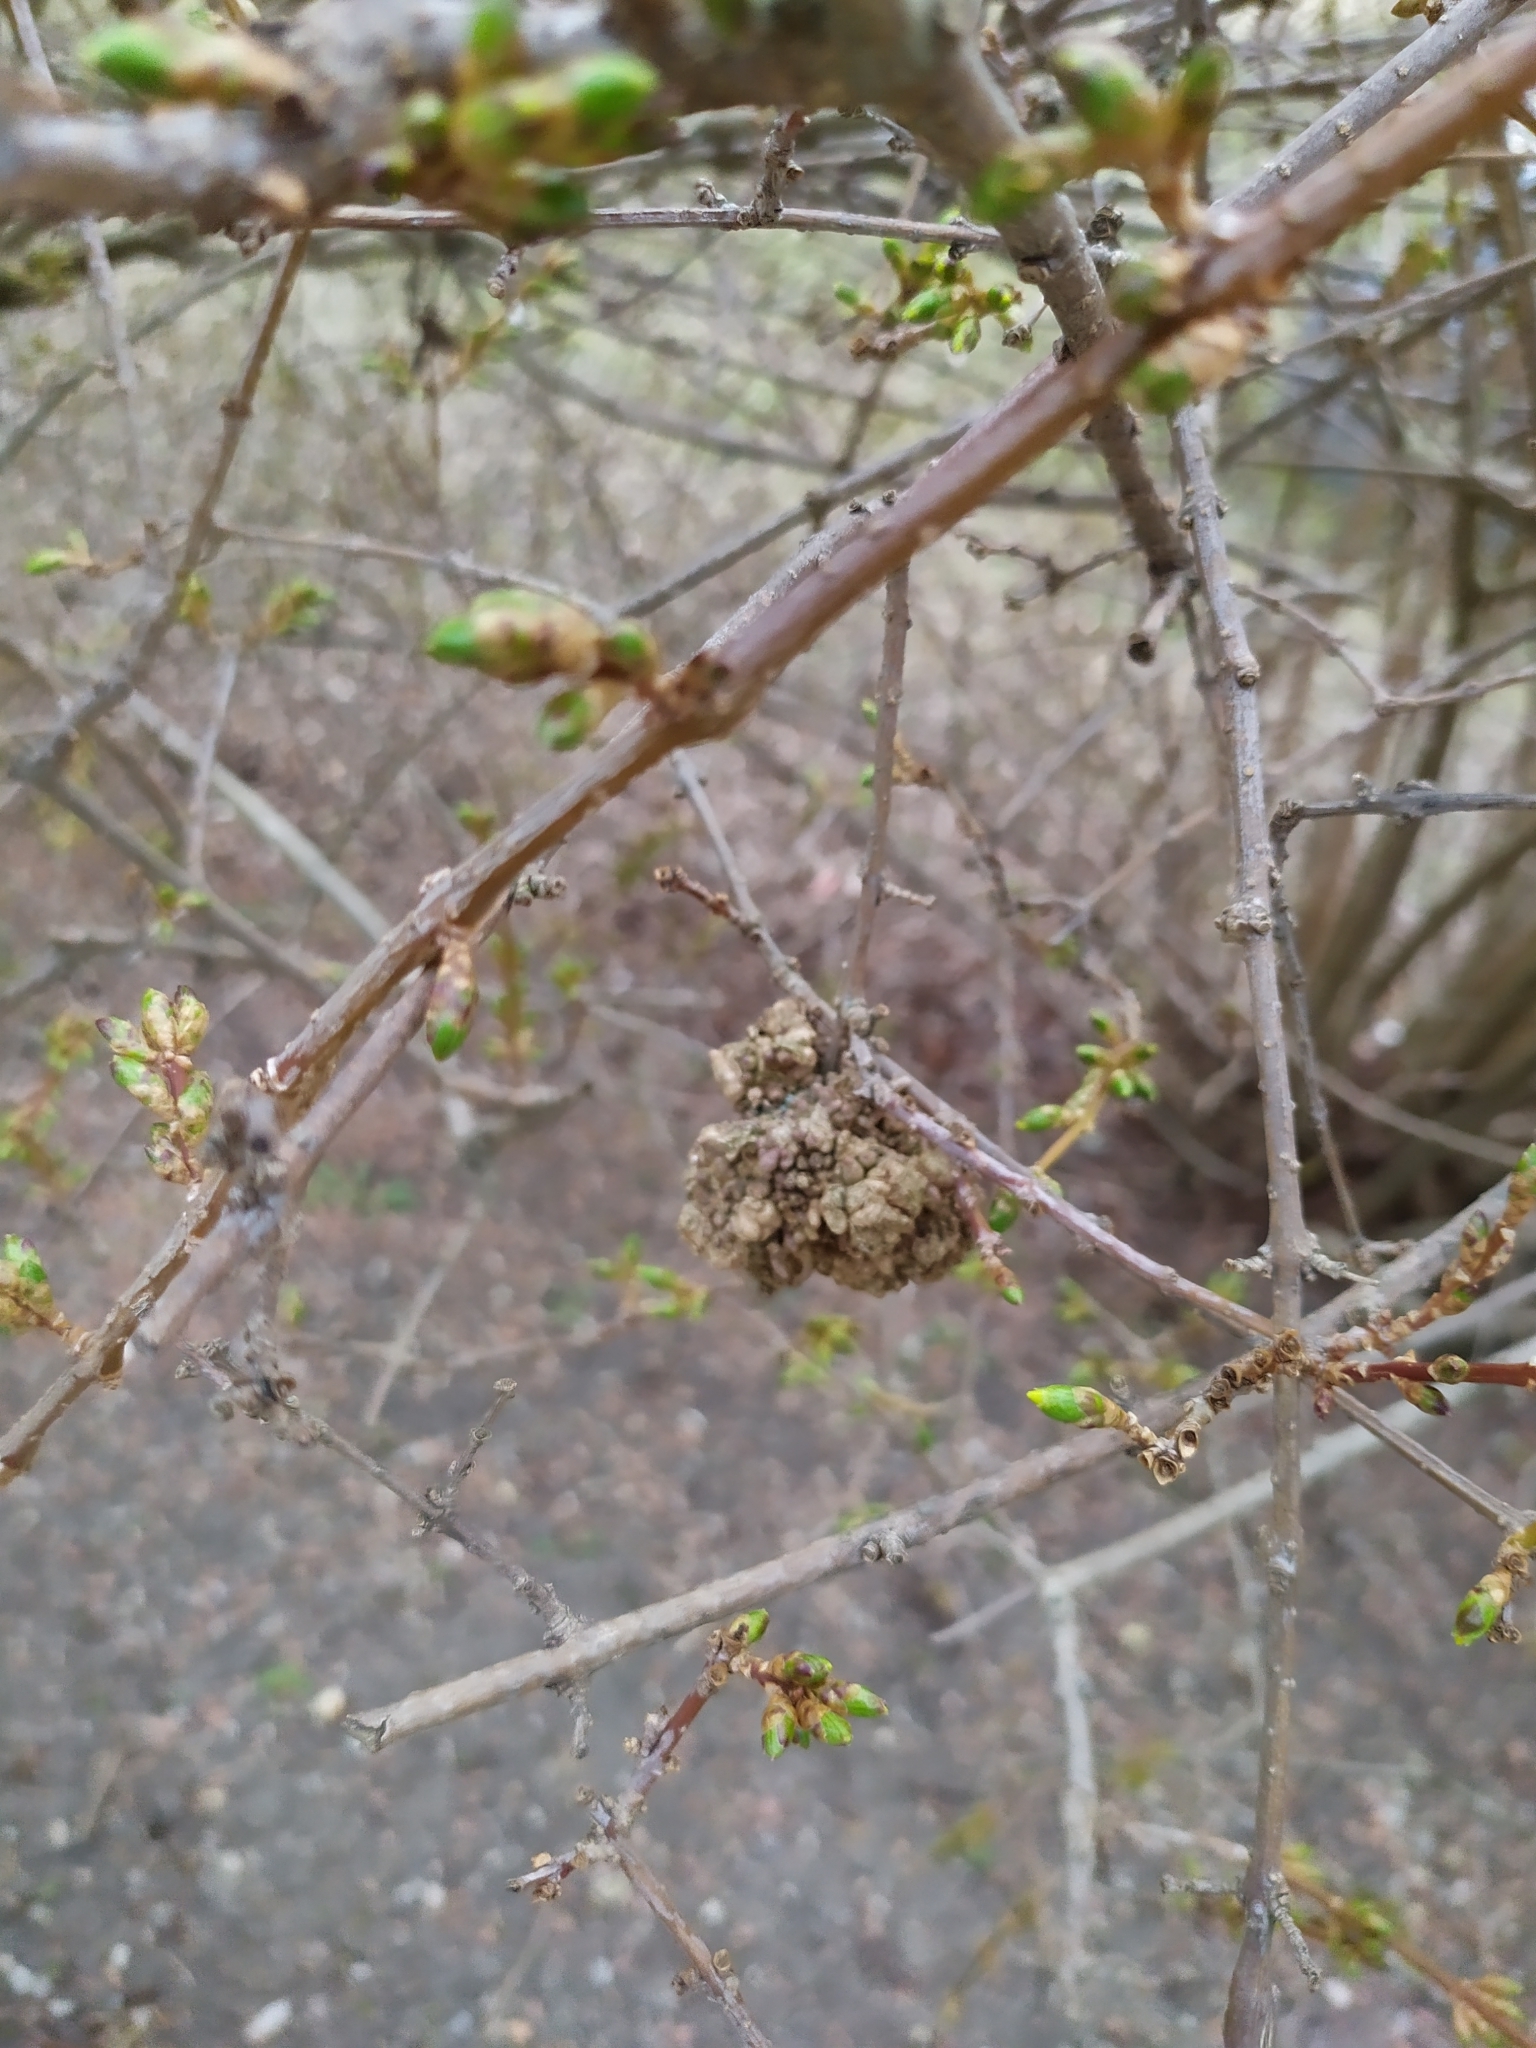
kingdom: Bacteria
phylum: Actinobacteriota
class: Actinomycetia
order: Actinomycetales
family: Nocardiaceae
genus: Rhodococcus
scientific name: Rhodococcus fascians
